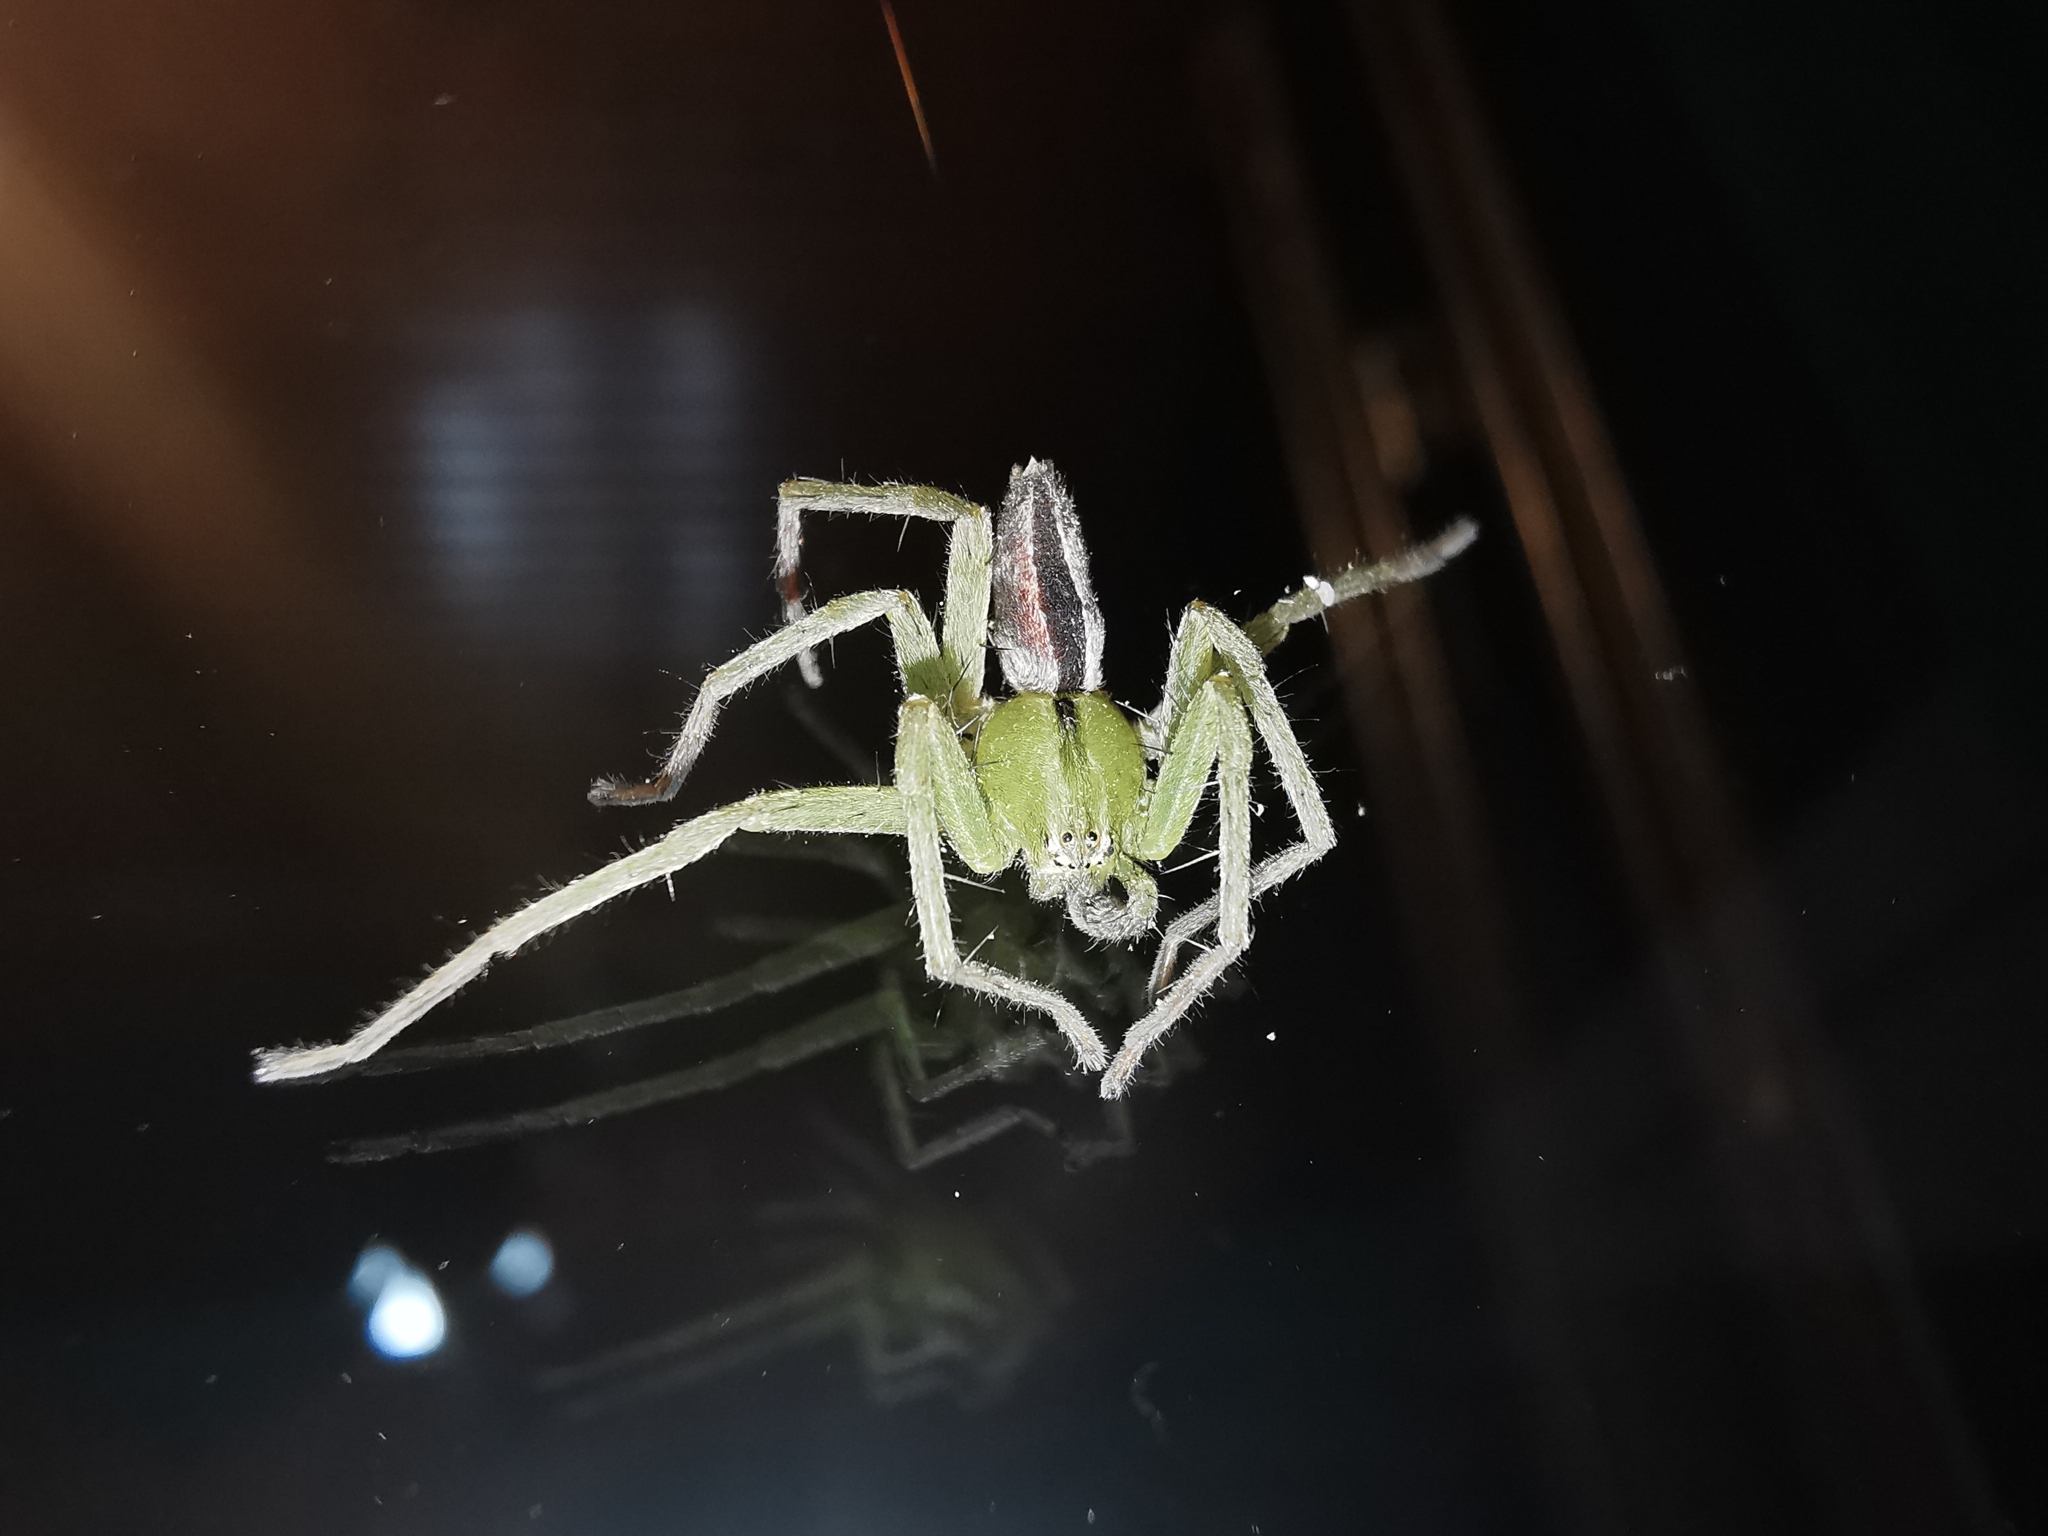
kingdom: Animalia
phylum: Arthropoda
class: Arachnida
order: Araneae
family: Sparassidae
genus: Micrommata
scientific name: Micrommata ligurina
